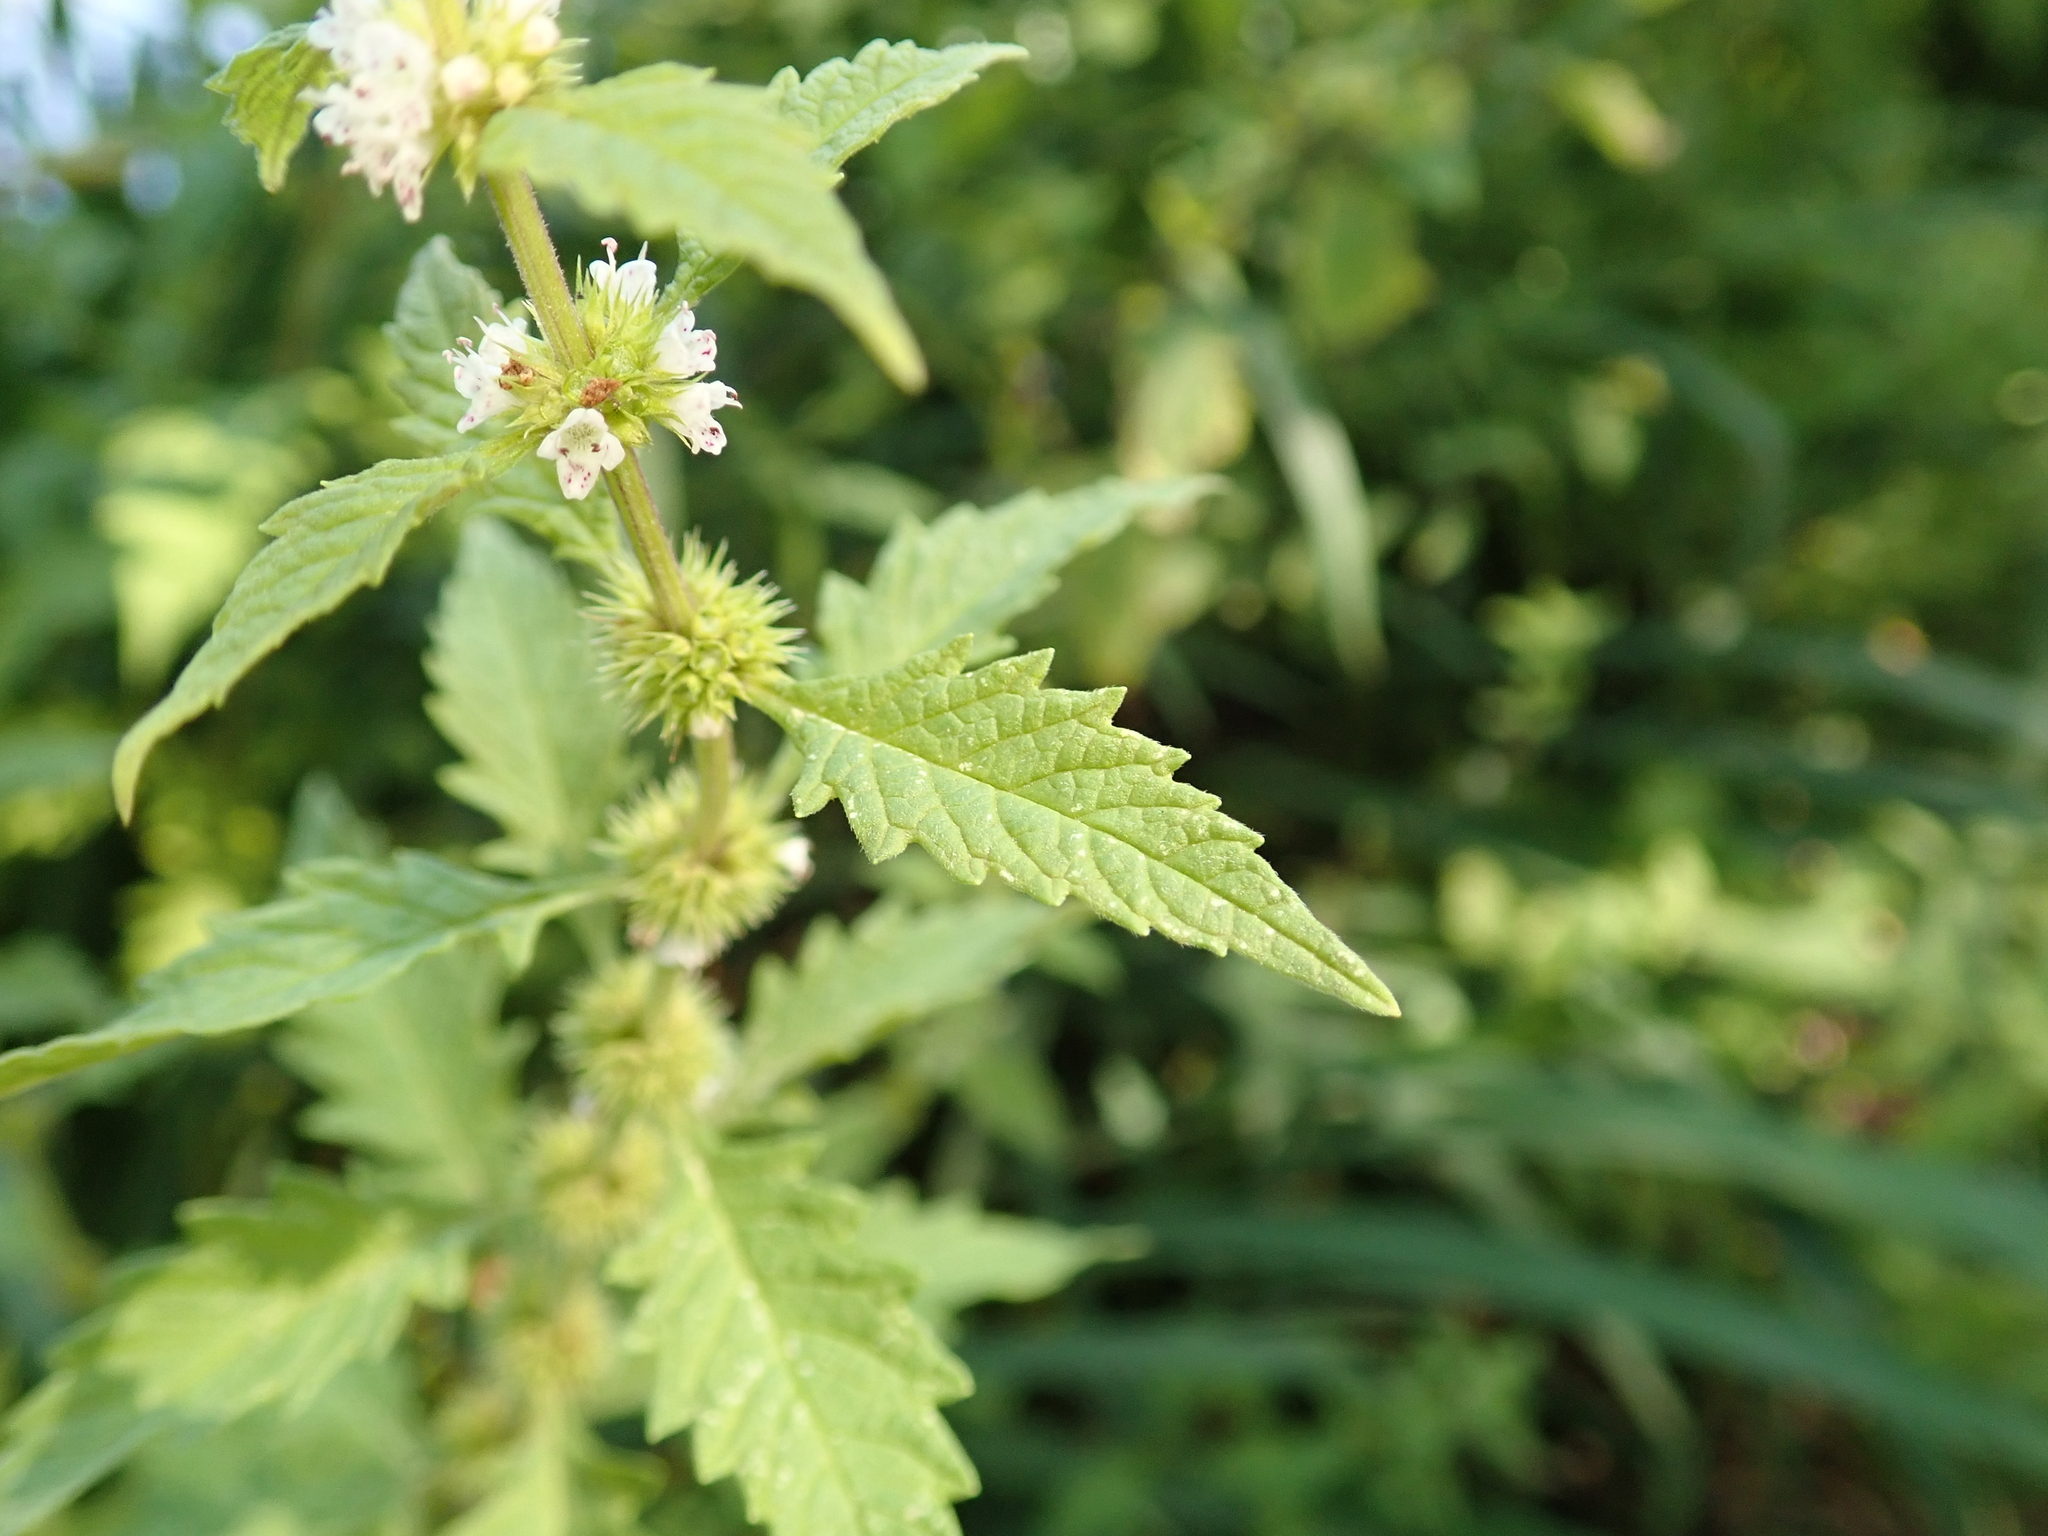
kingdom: Plantae
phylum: Tracheophyta
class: Magnoliopsida
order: Lamiales
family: Lamiaceae
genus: Lycopus
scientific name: Lycopus europaeus
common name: European bugleweed
